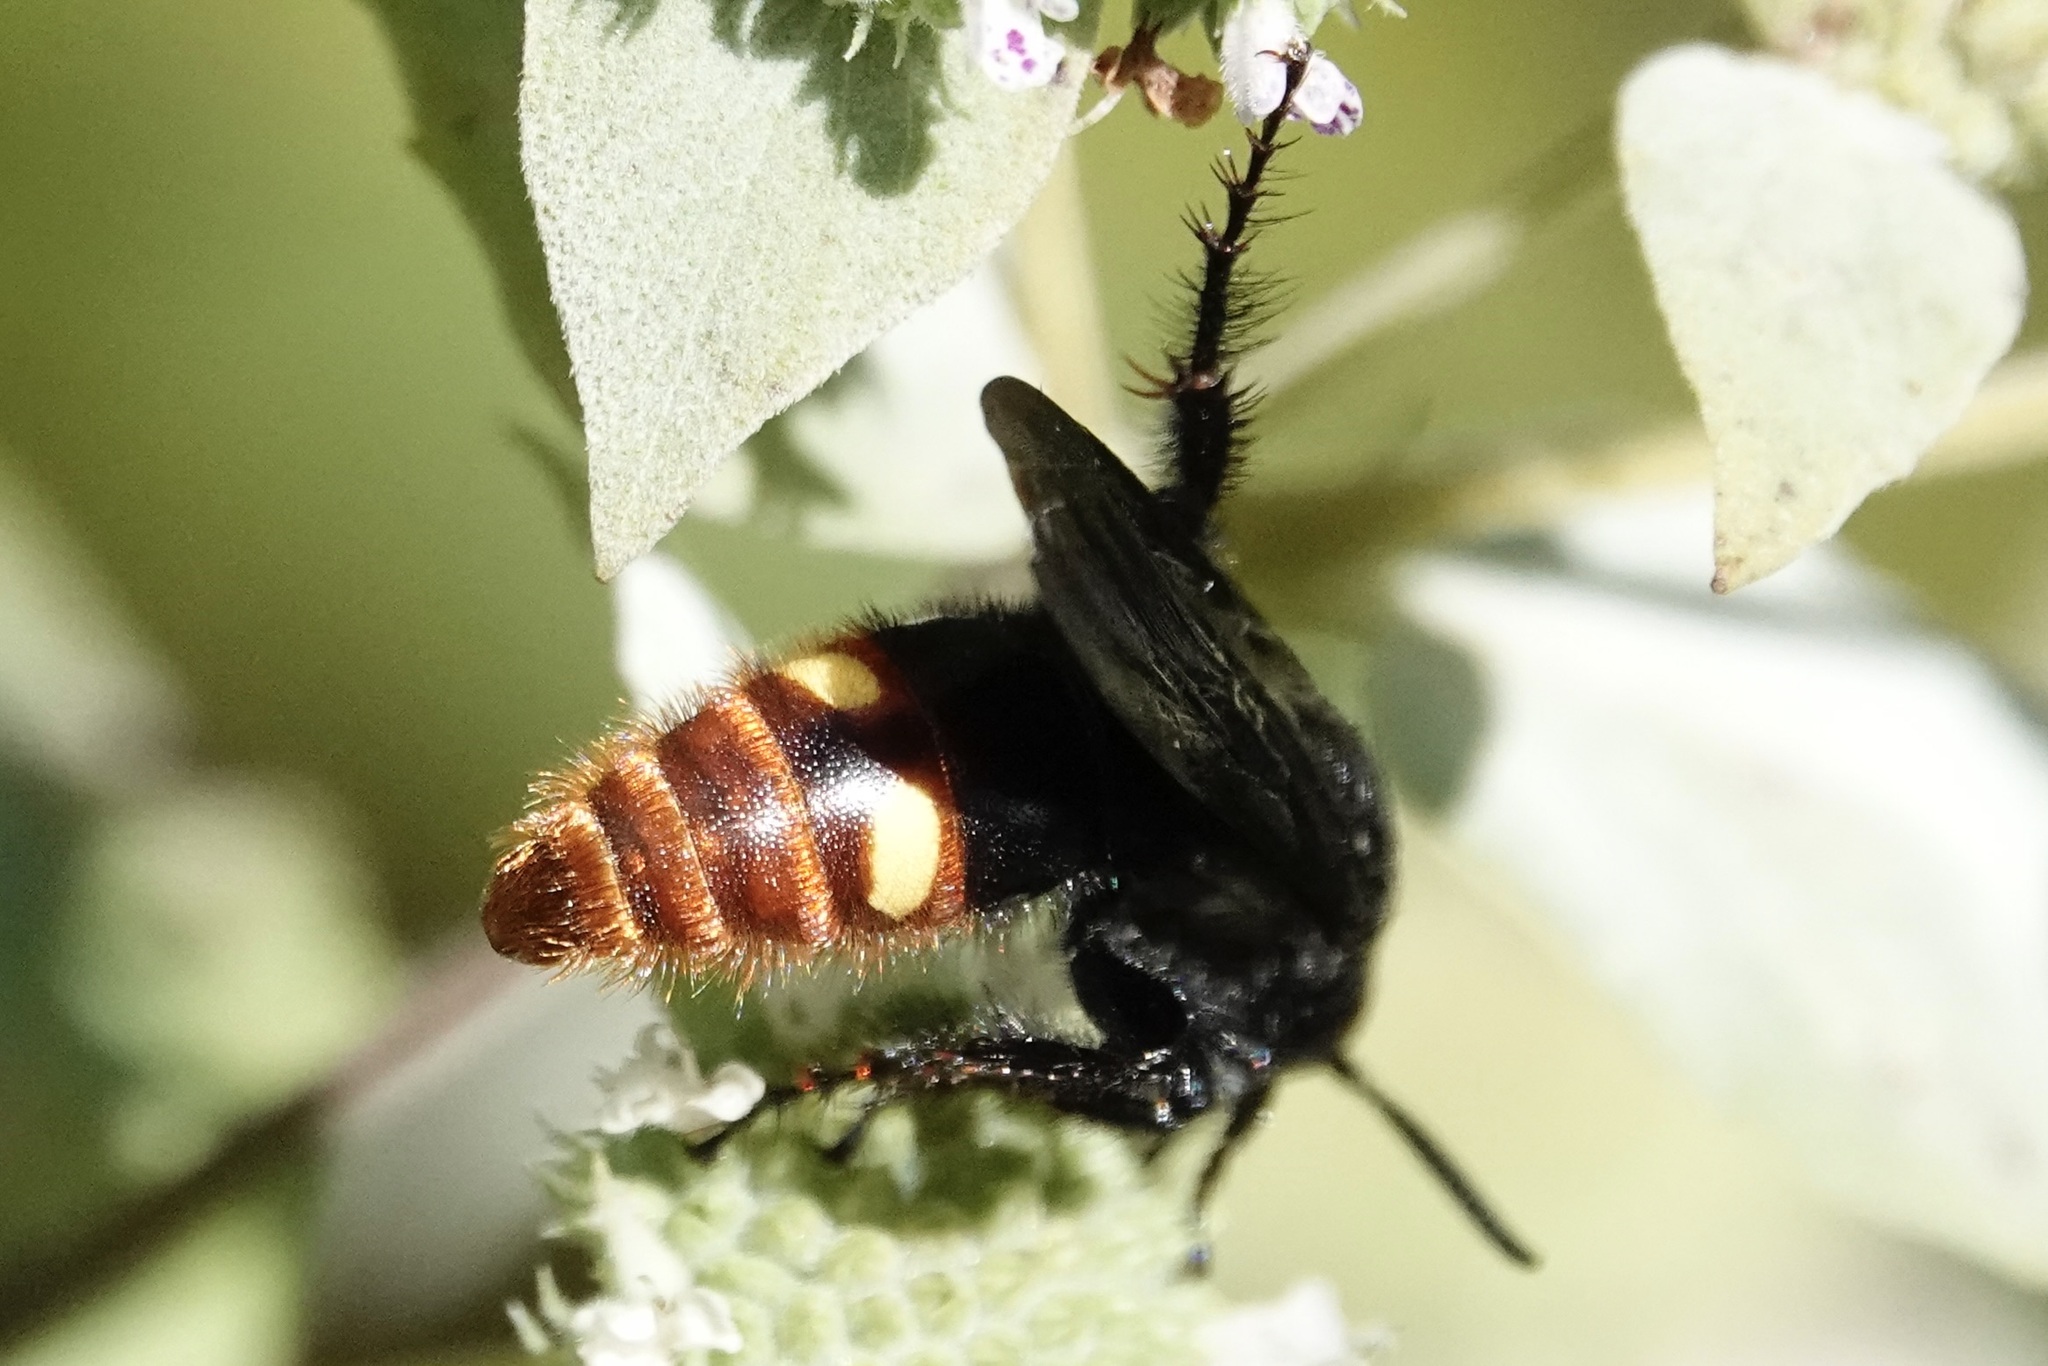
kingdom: Animalia
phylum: Arthropoda
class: Insecta
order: Hymenoptera
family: Scoliidae
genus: Scolia
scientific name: Scolia dubia
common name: Blue-winged scoliid wasp
